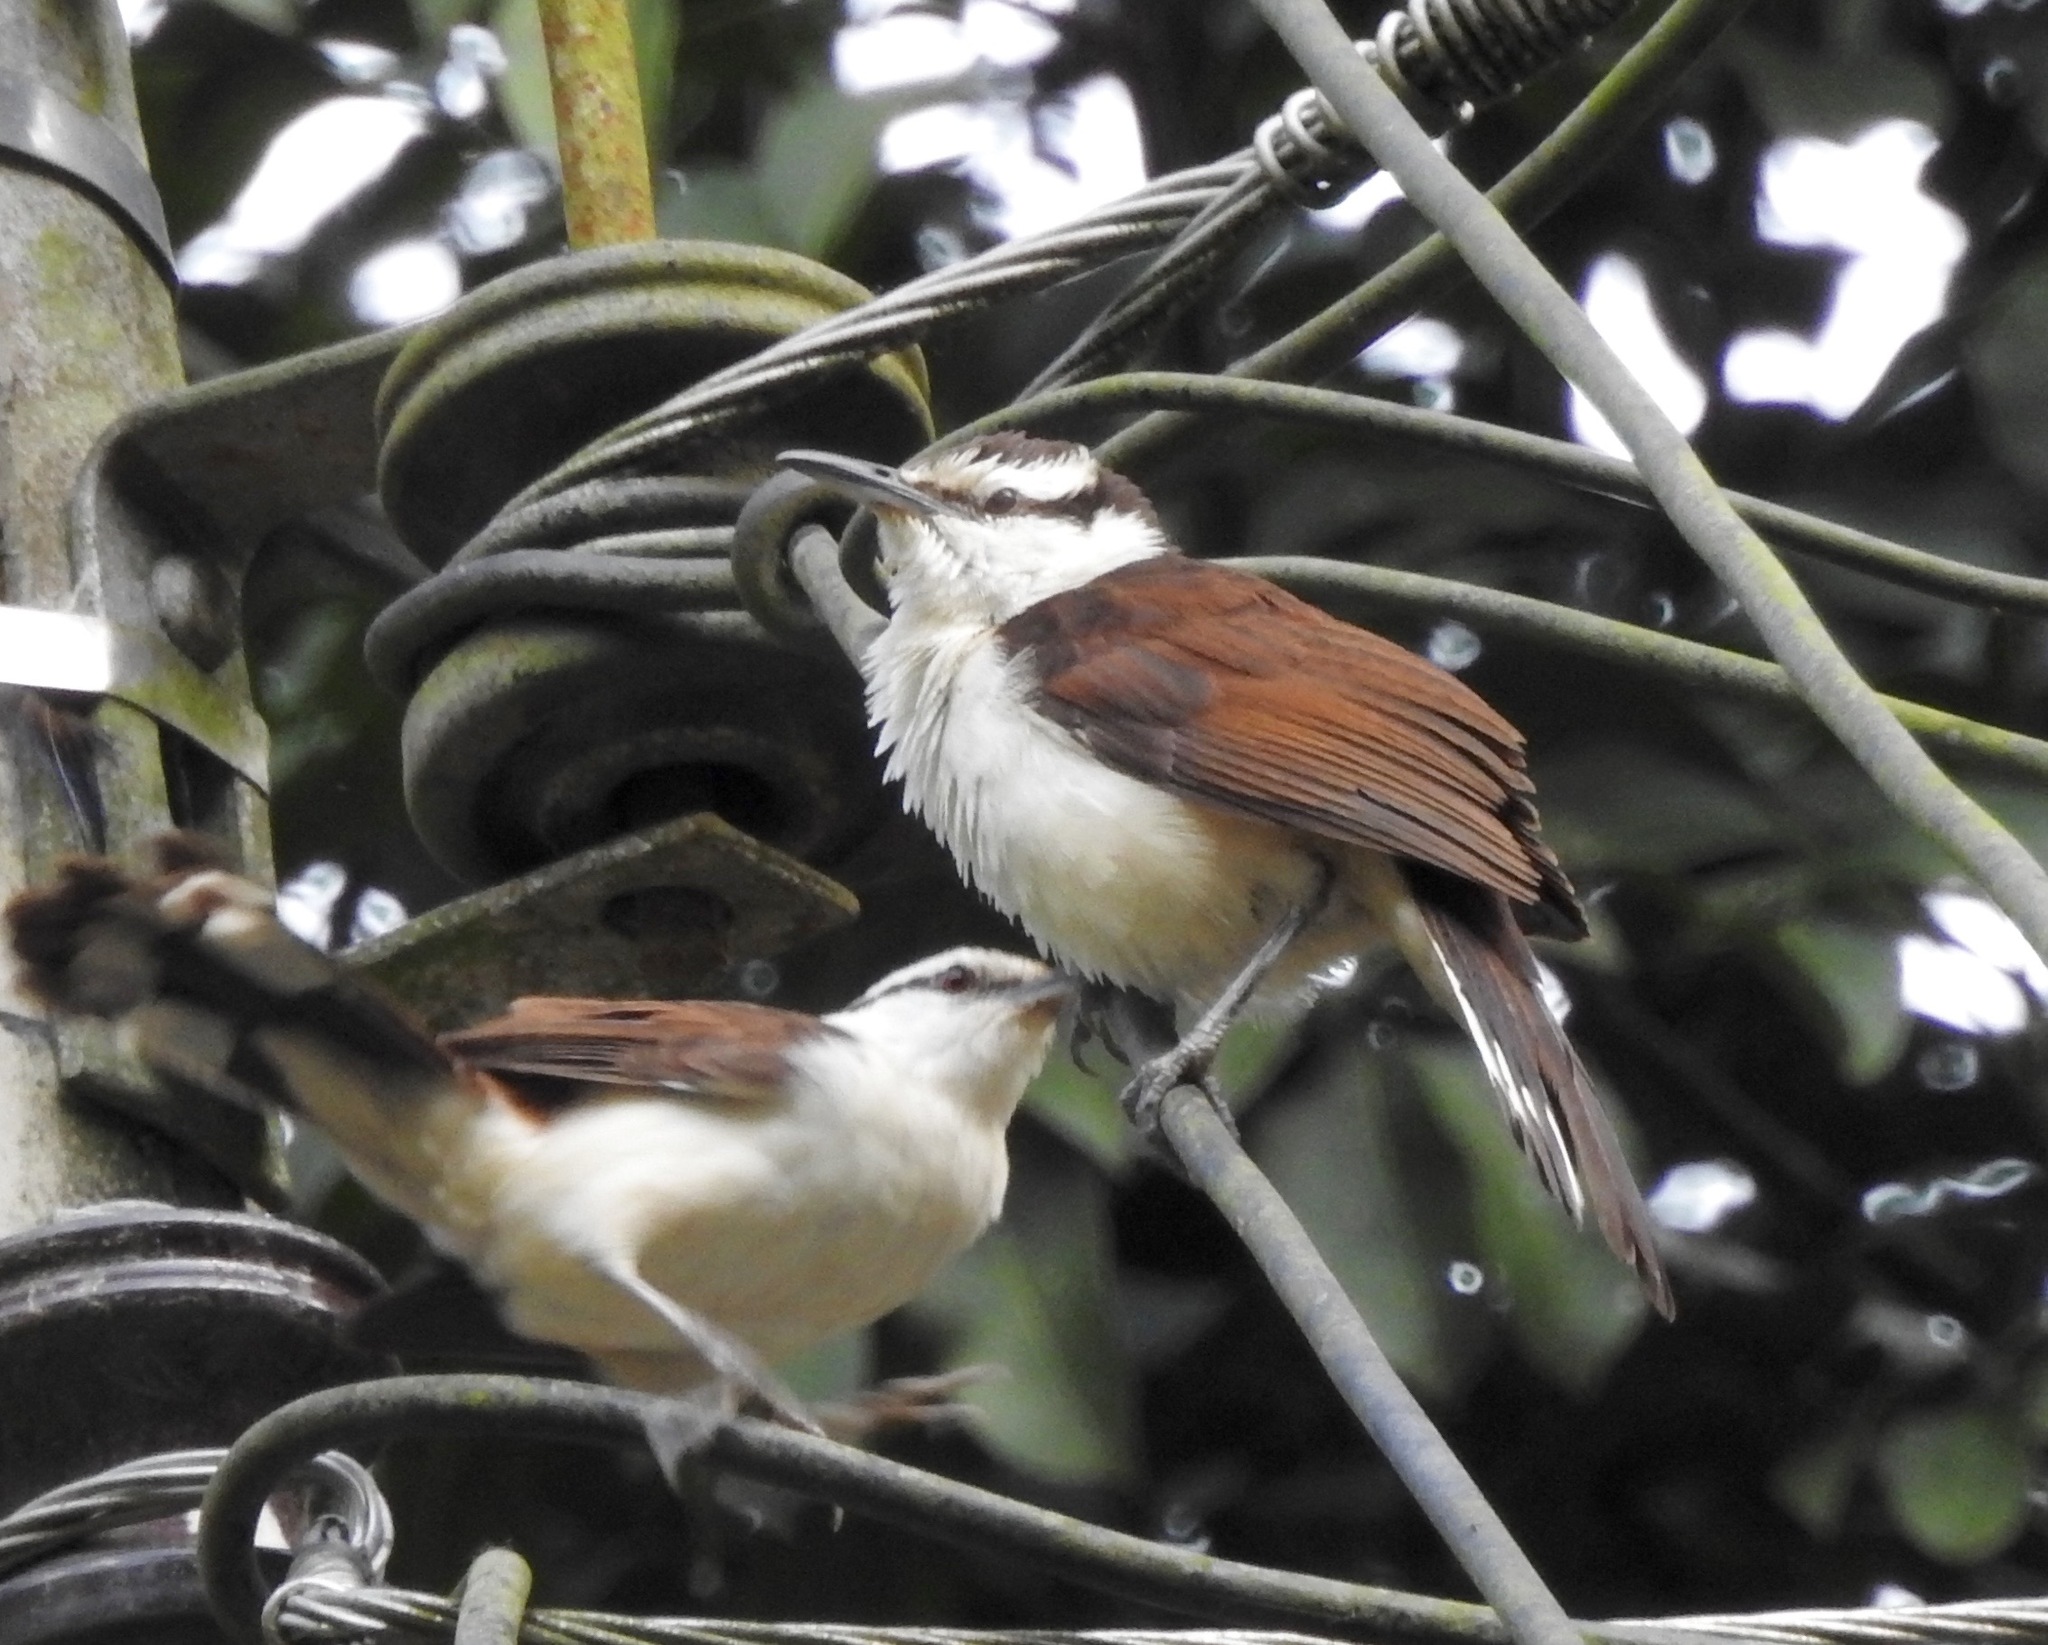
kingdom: Animalia
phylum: Chordata
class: Aves
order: Passeriformes
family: Troglodytidae
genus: Campylorhynchus
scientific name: Campylorhynchus griseus
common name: Bicolored wren
